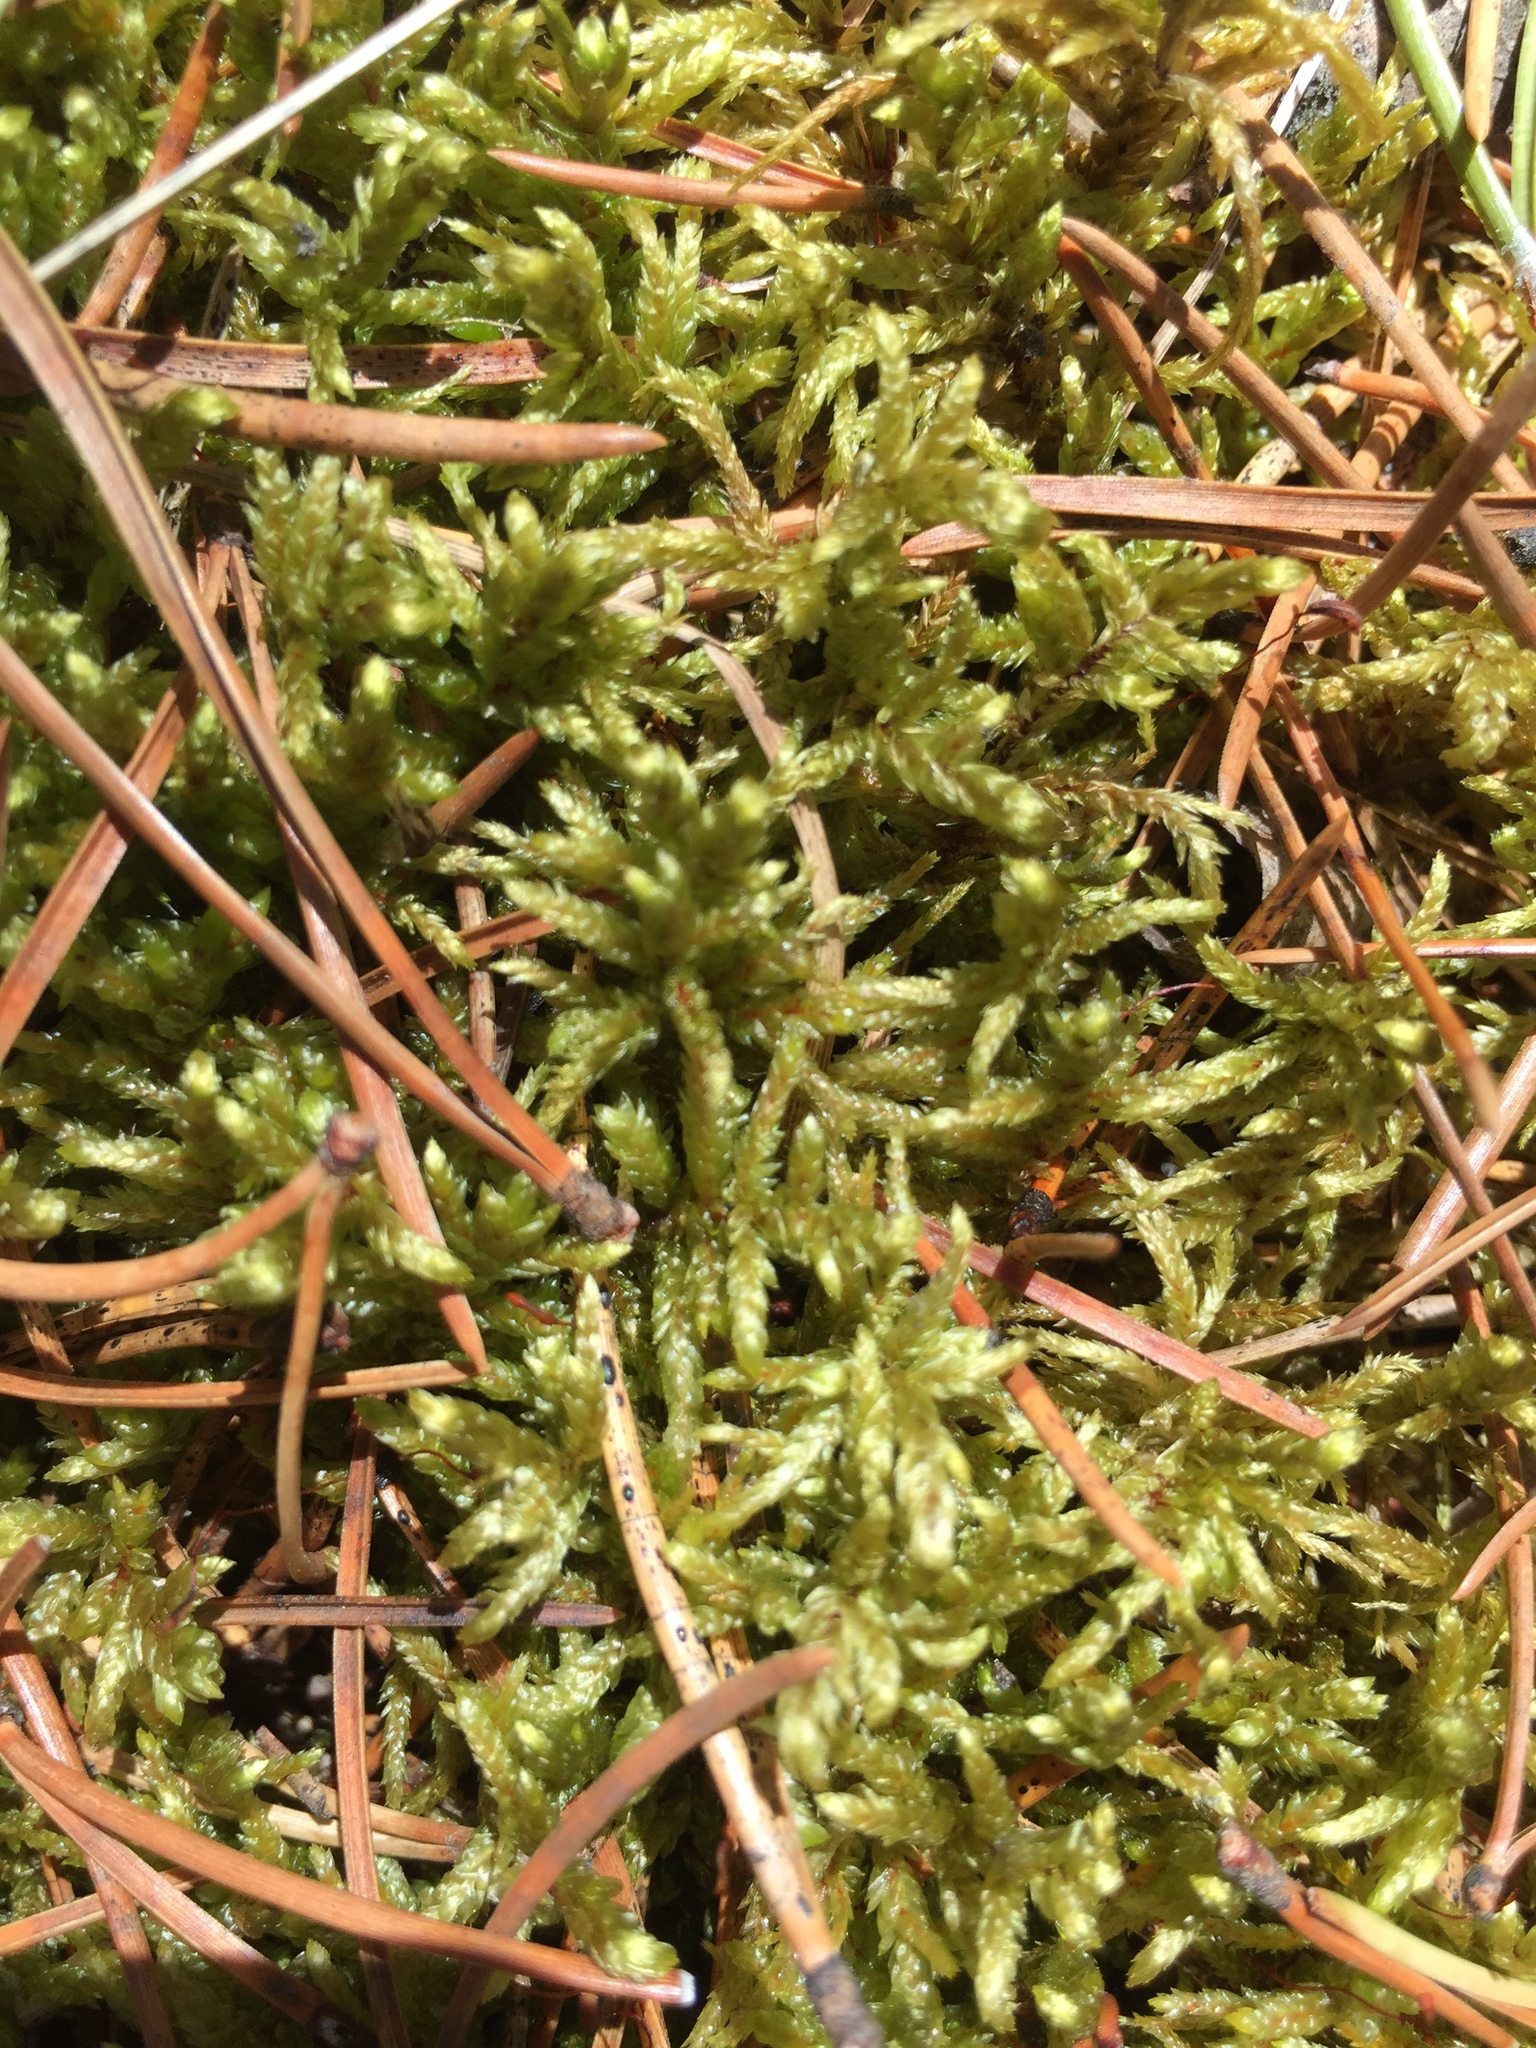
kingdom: Plantae
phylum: Bryophyta
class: Bryopsida
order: Hypnales
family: Hylocomiaceae
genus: Pleurozium
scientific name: Pleurozium schreberi
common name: Red-stemmed feather moss
